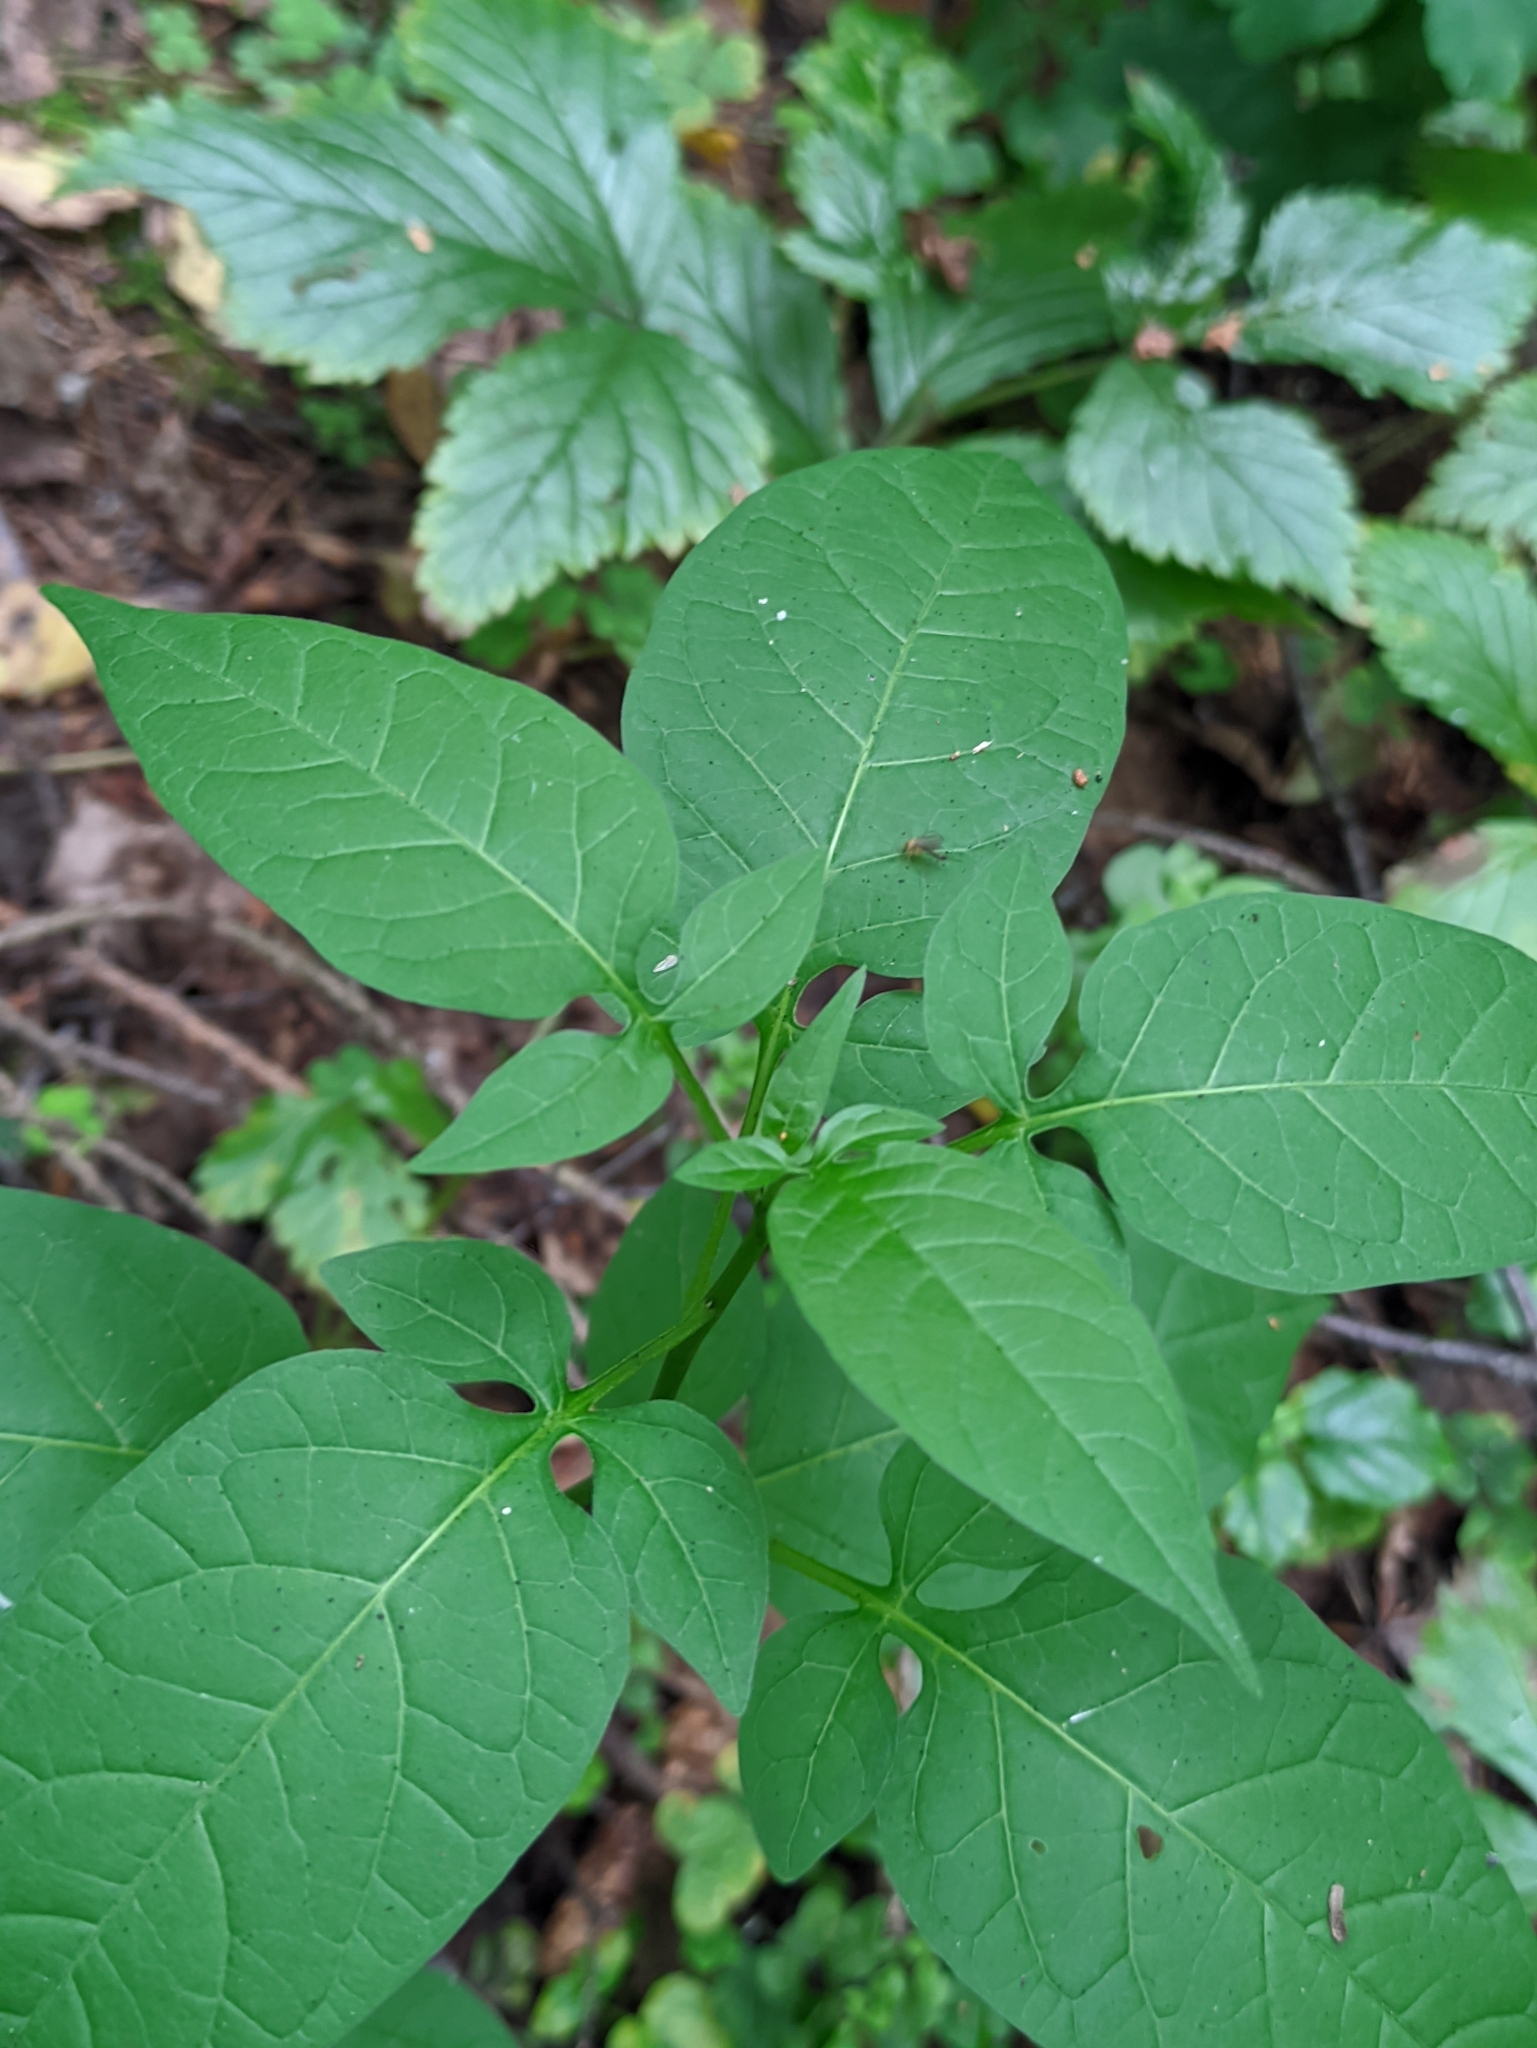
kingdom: Plantae
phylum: Tracheophyta
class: Magnoliopsida
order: Solanales
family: Solanaceae
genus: Solanum
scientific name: Solanum dulcamara
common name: Climbing nightshade
